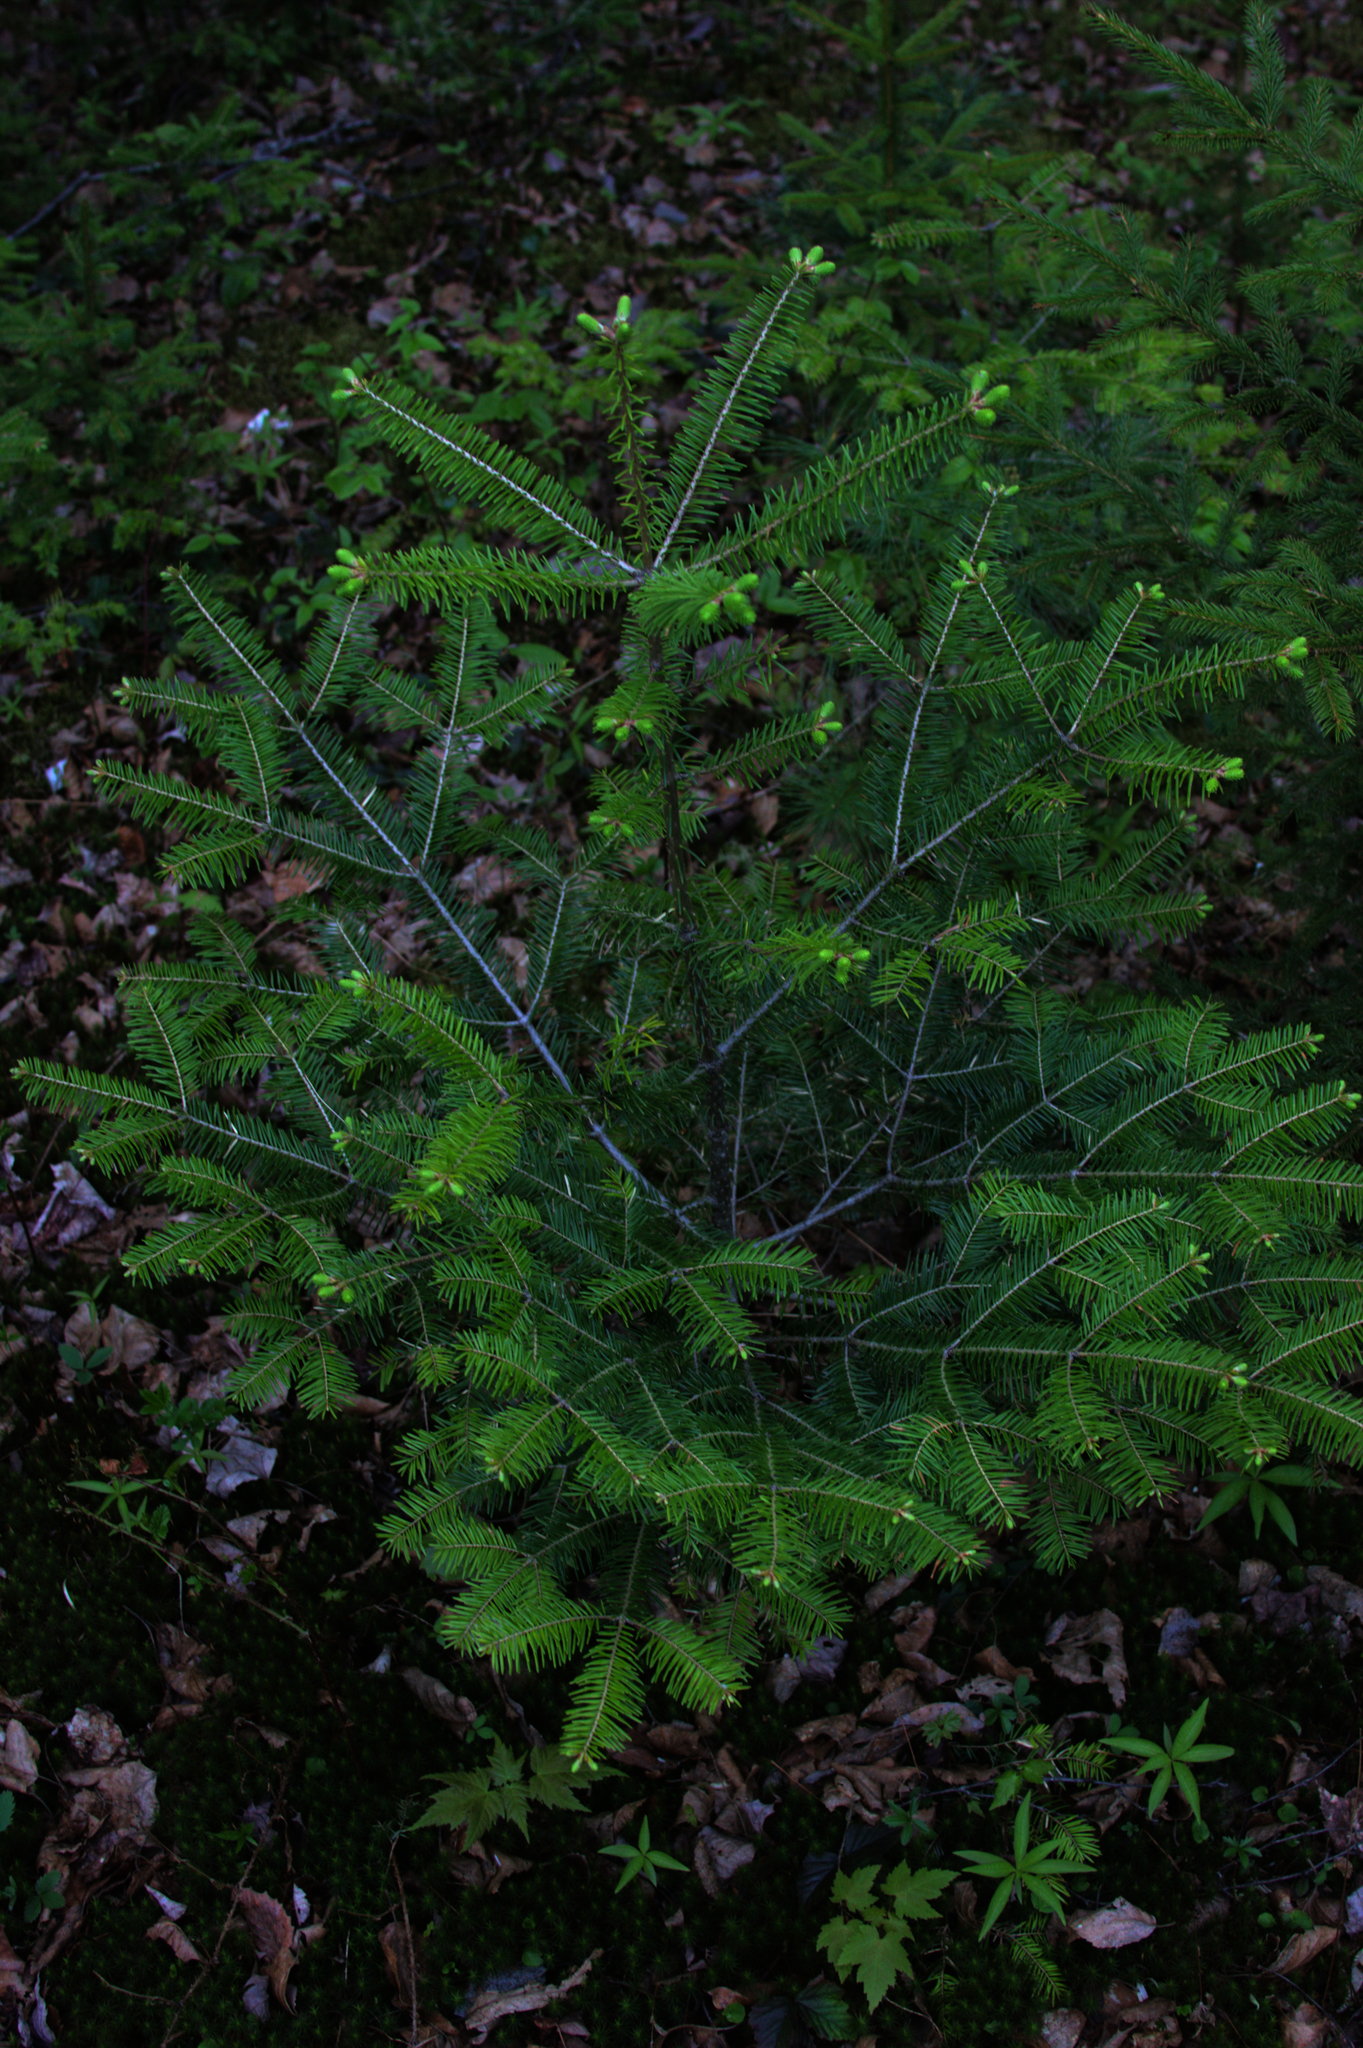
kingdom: Plantae
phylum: Tracheophyta
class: Pinopsida
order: Pinales
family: Pinaceae
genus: Abies
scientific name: Abies balsamea
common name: Balsam fir
